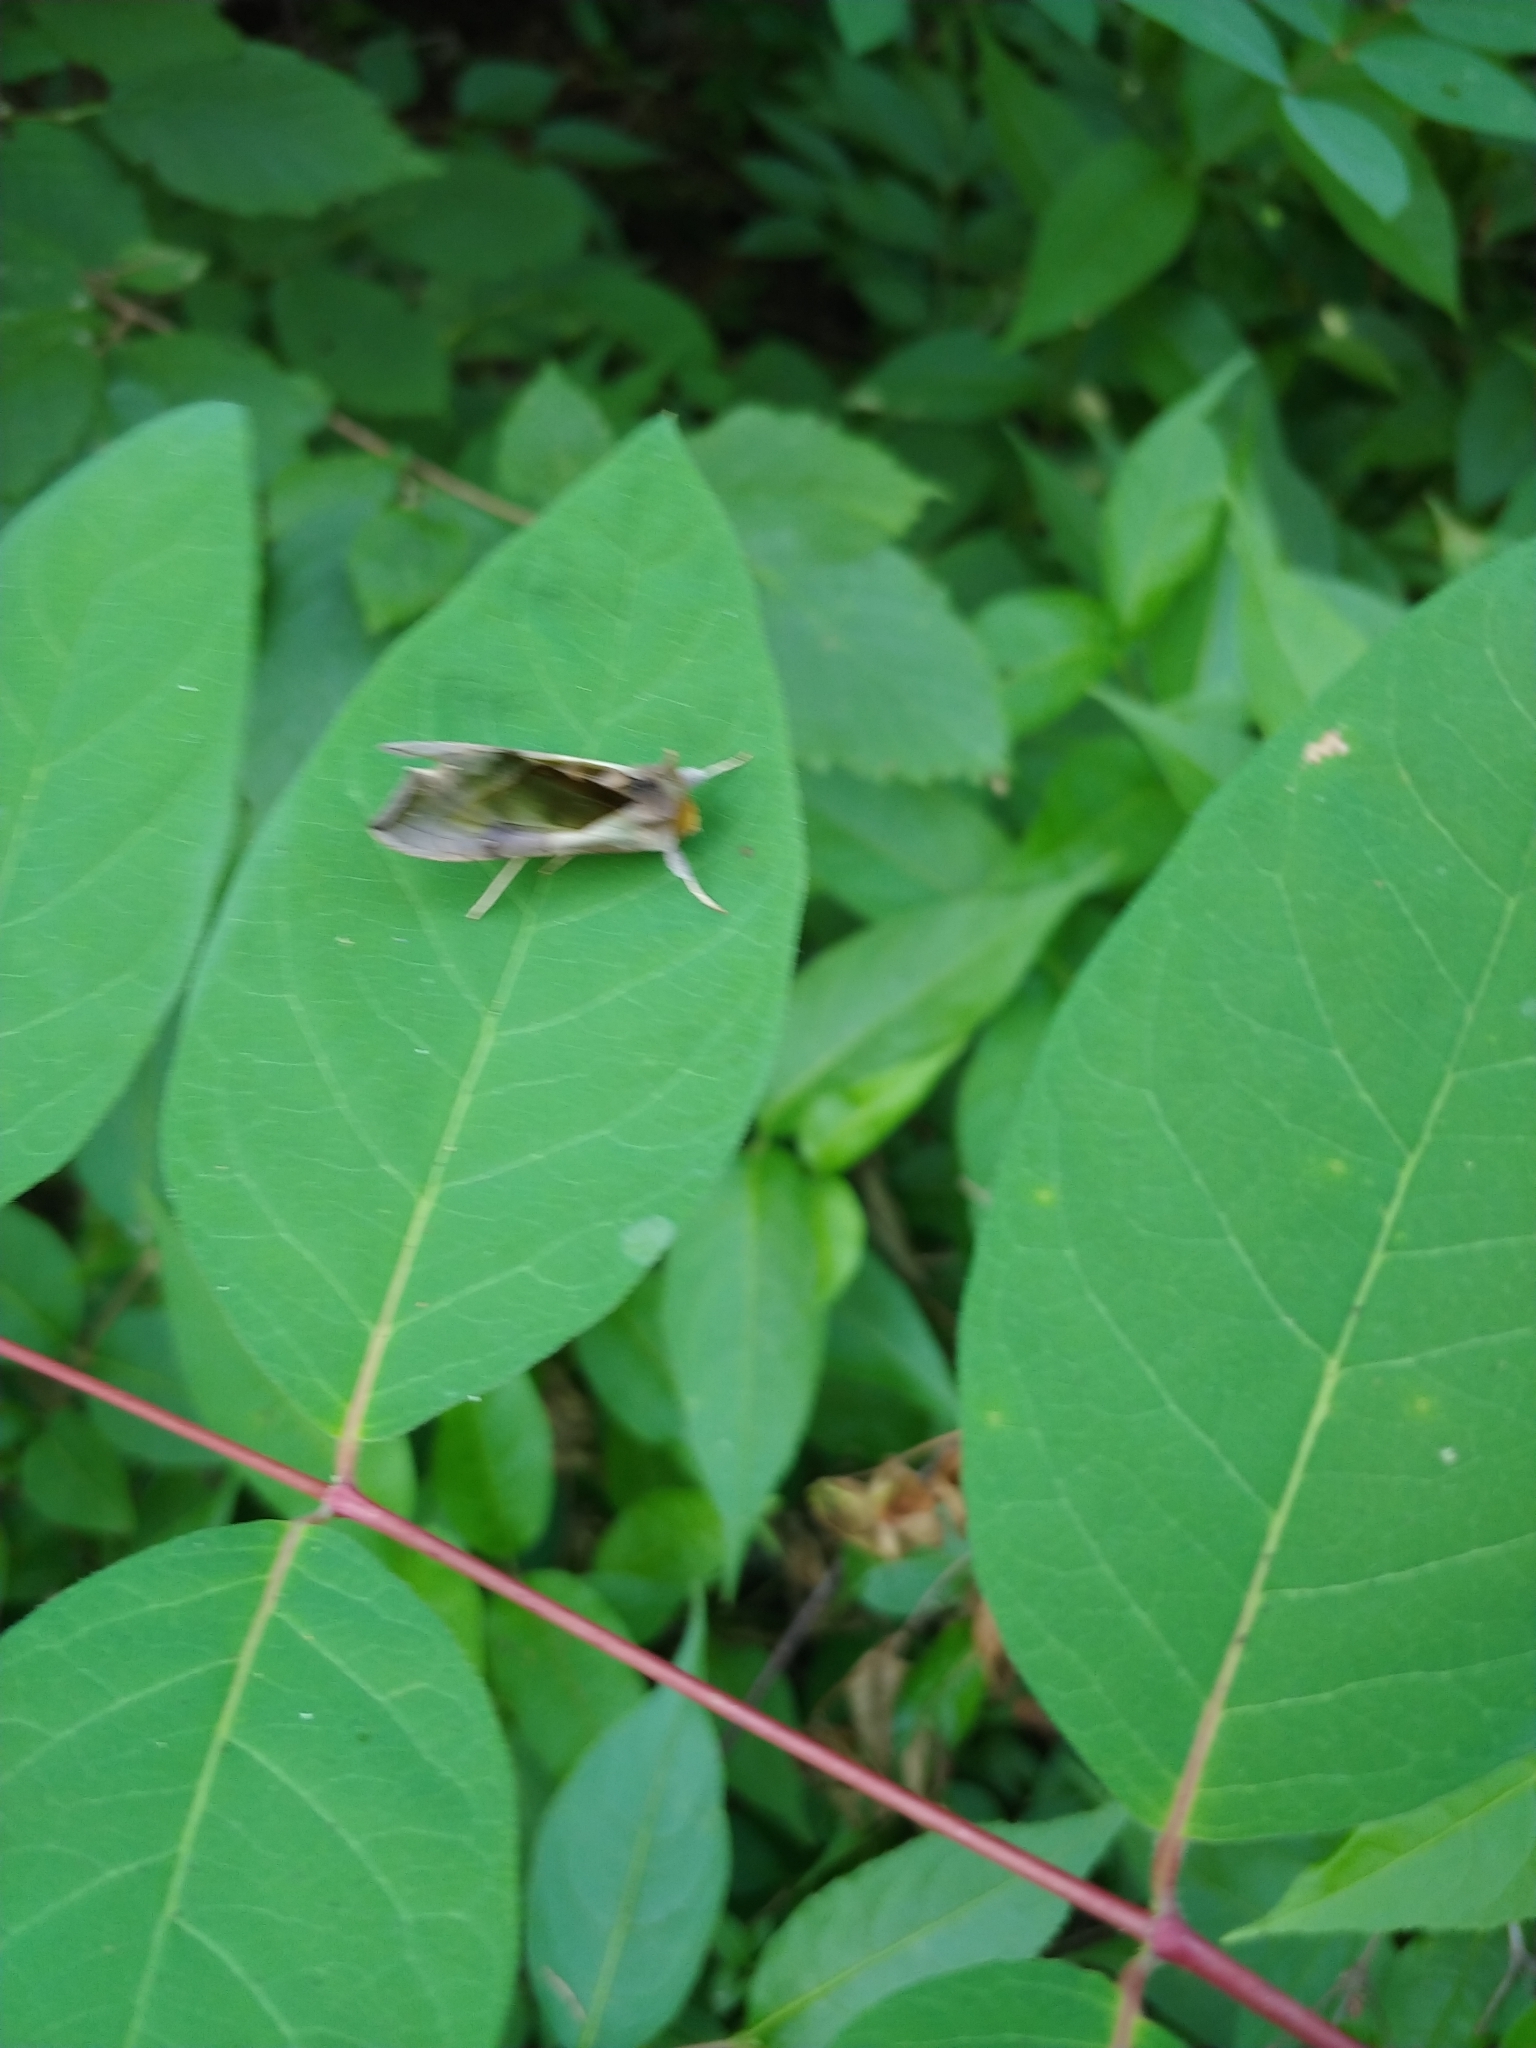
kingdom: Animalia
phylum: Arthropoda
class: Insecta
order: Lepidoptera
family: Noctuidae
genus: Diachrysia
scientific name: Diachrysia balluca
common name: Green-patched looper moth
